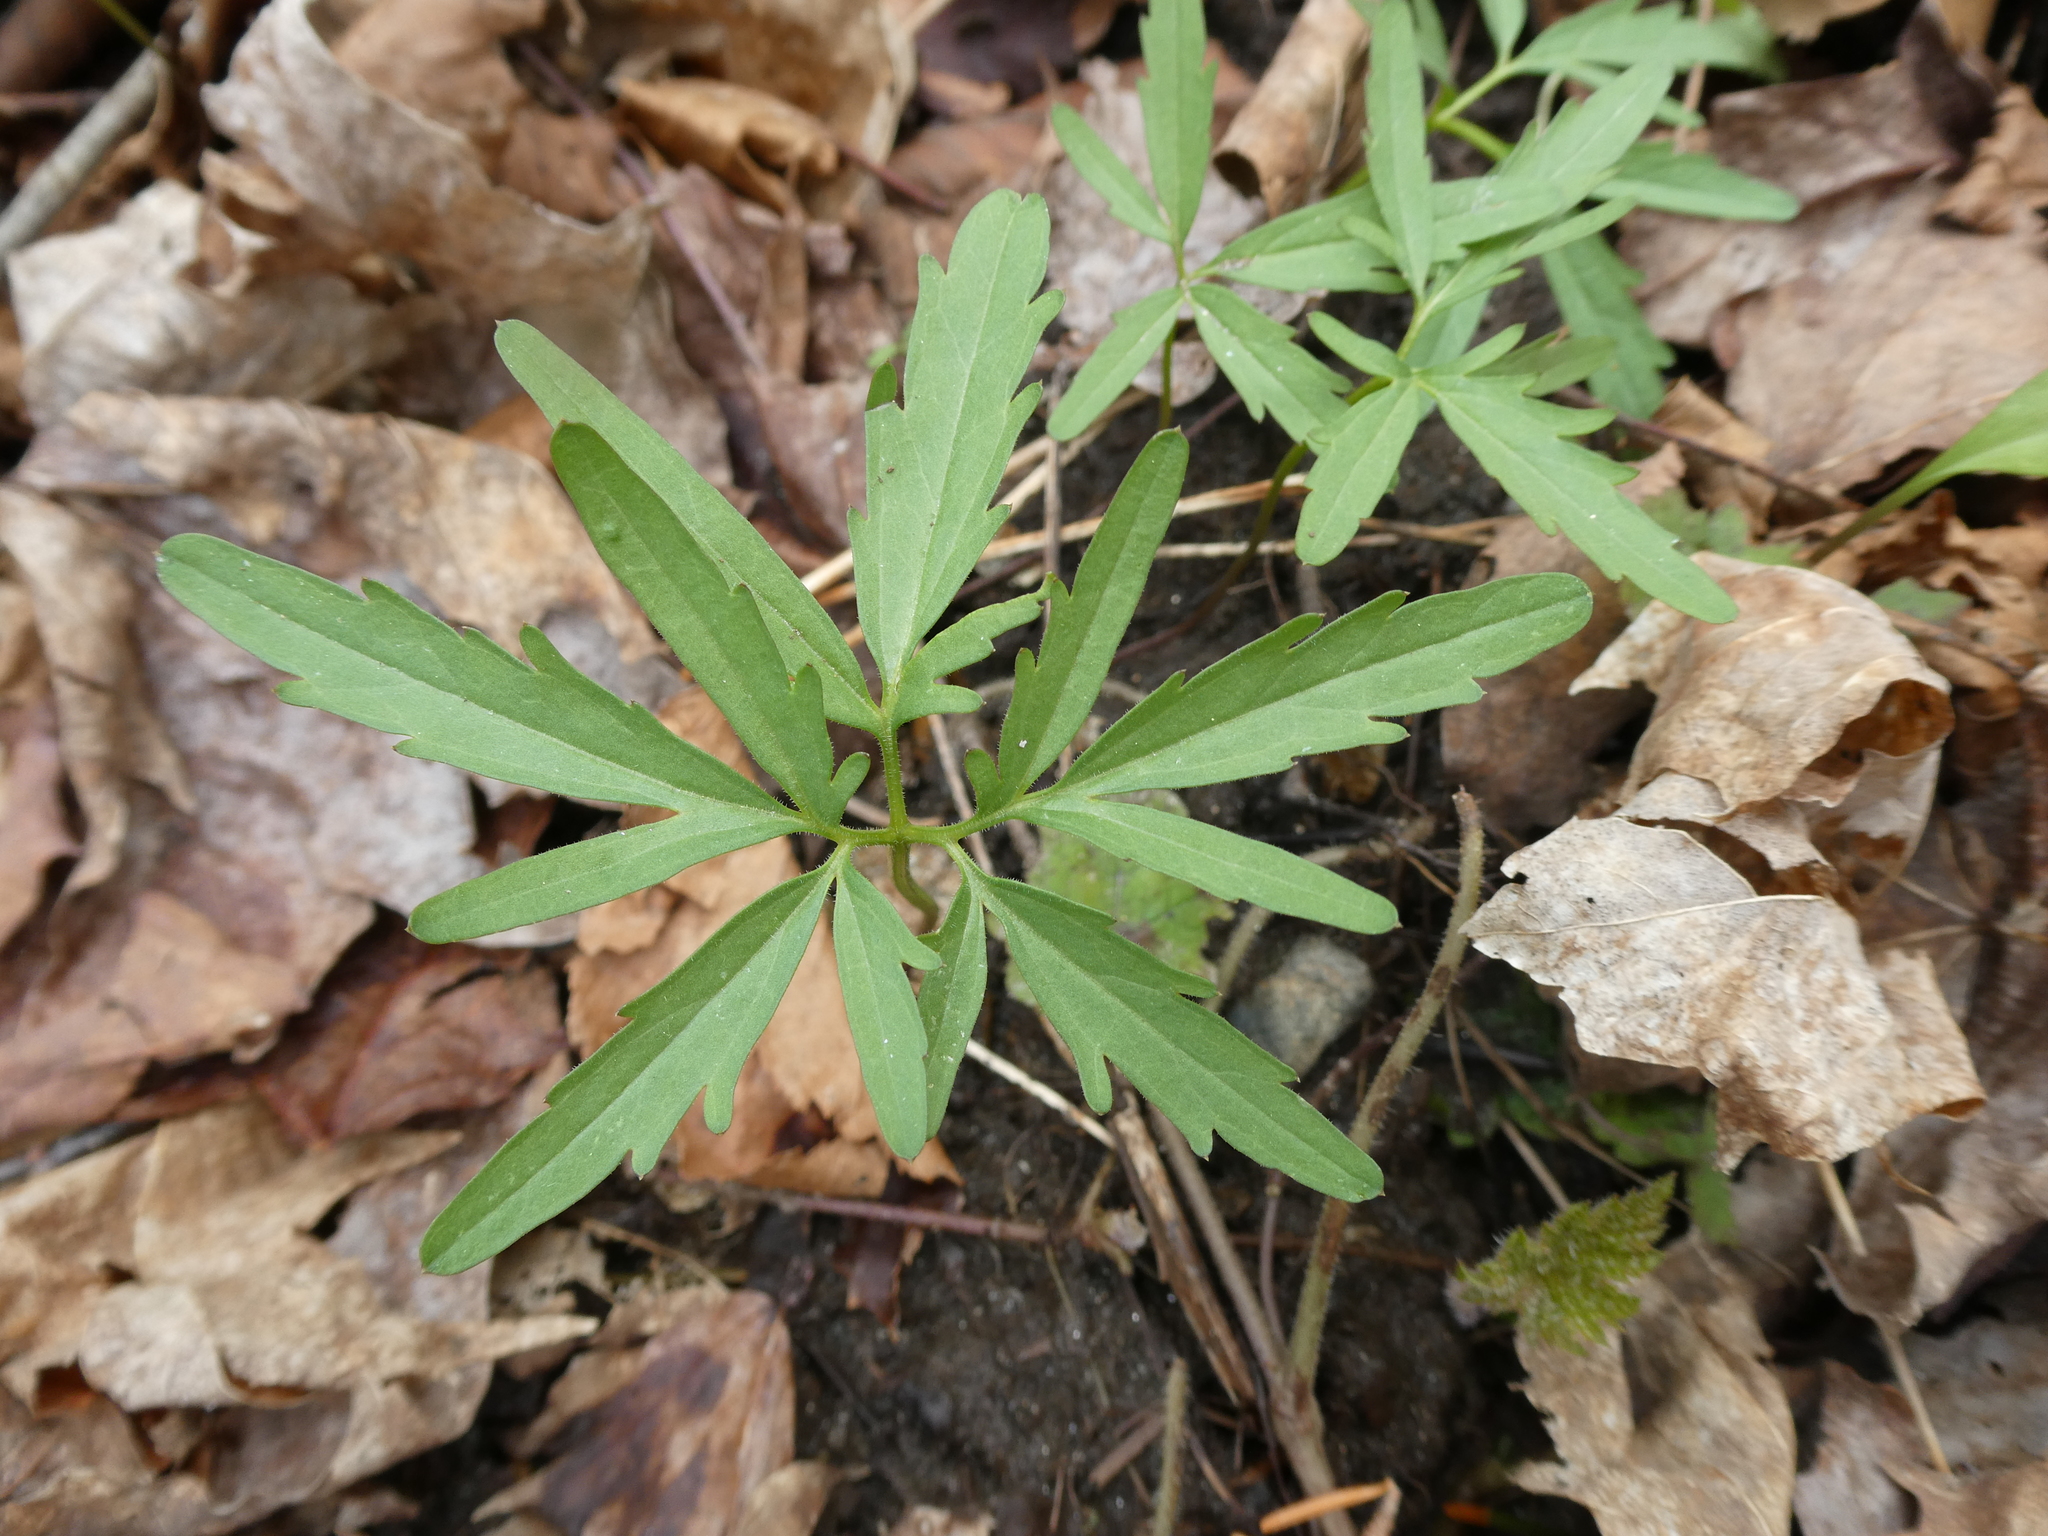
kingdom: Plantae
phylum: Tracheophyta
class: Magnoliopsida
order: Brassicales
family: Brassicaceae
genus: Cardamine
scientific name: Cardamine concatenata
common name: Cut-leaf toothcup
